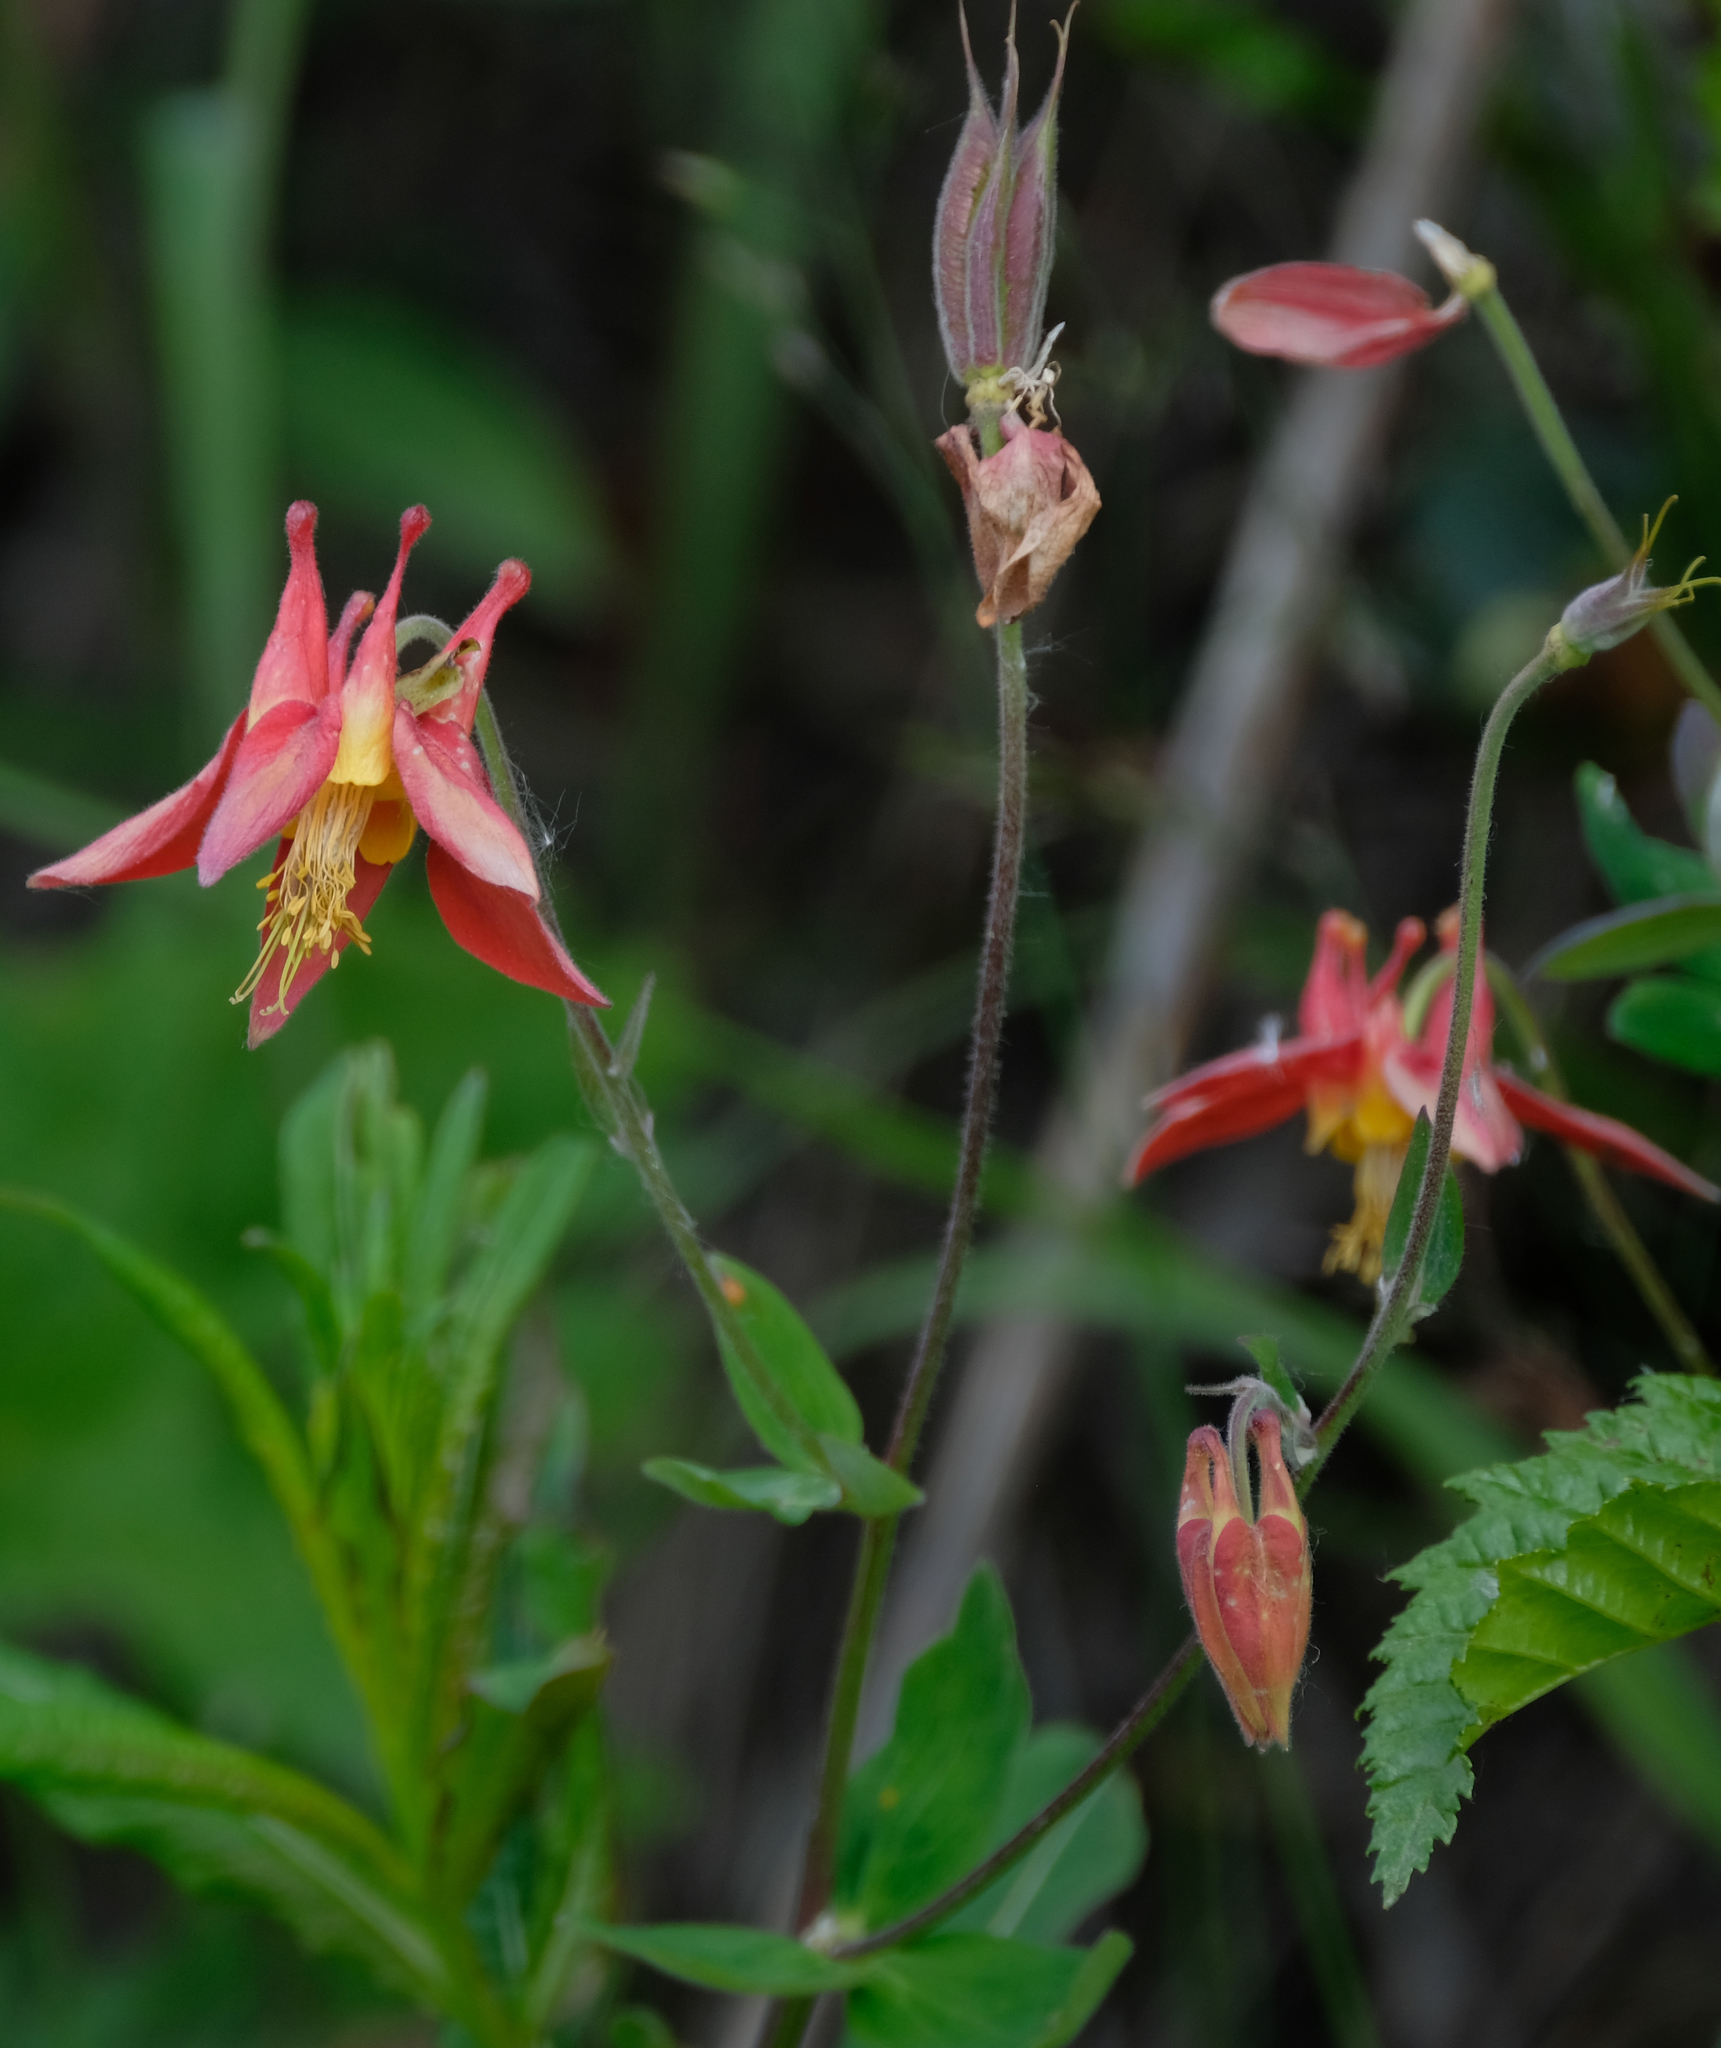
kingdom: Plantae
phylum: Tracheophyta
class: Magnoliopsida
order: Ranunculales
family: Ranunculaceae
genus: Aquilegia
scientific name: Aquilegia formosa
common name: Sitka columbine
